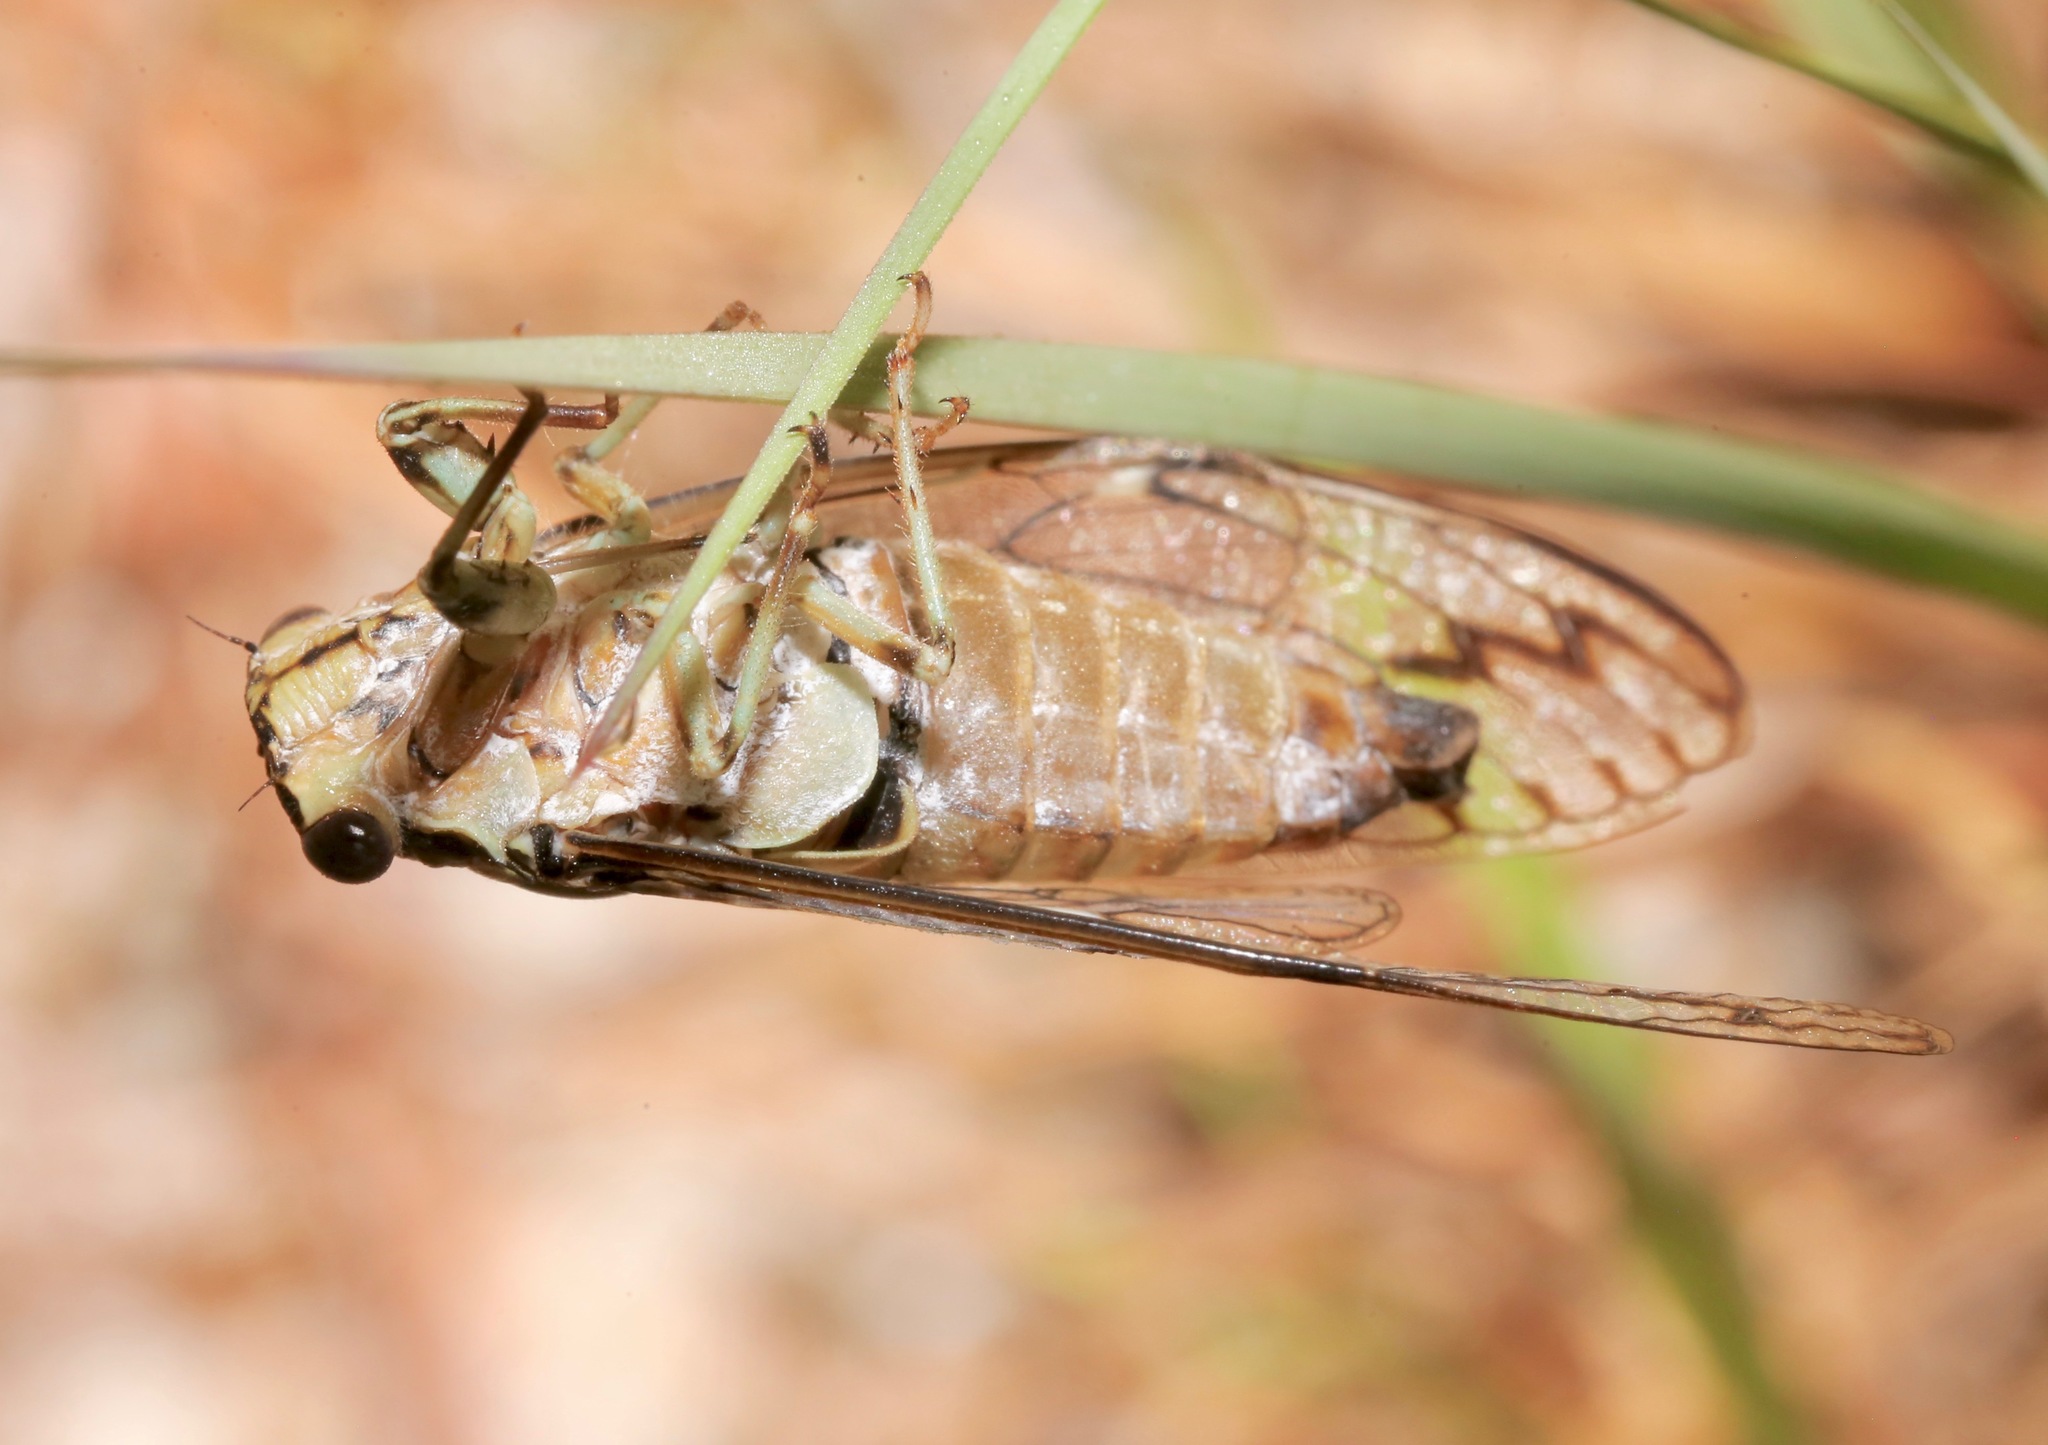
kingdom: Animalia
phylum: Arthropoda
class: Insecta
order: Hemiptera
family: Cicadidae
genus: Neocicada
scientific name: Neocicada hieroglyphica
